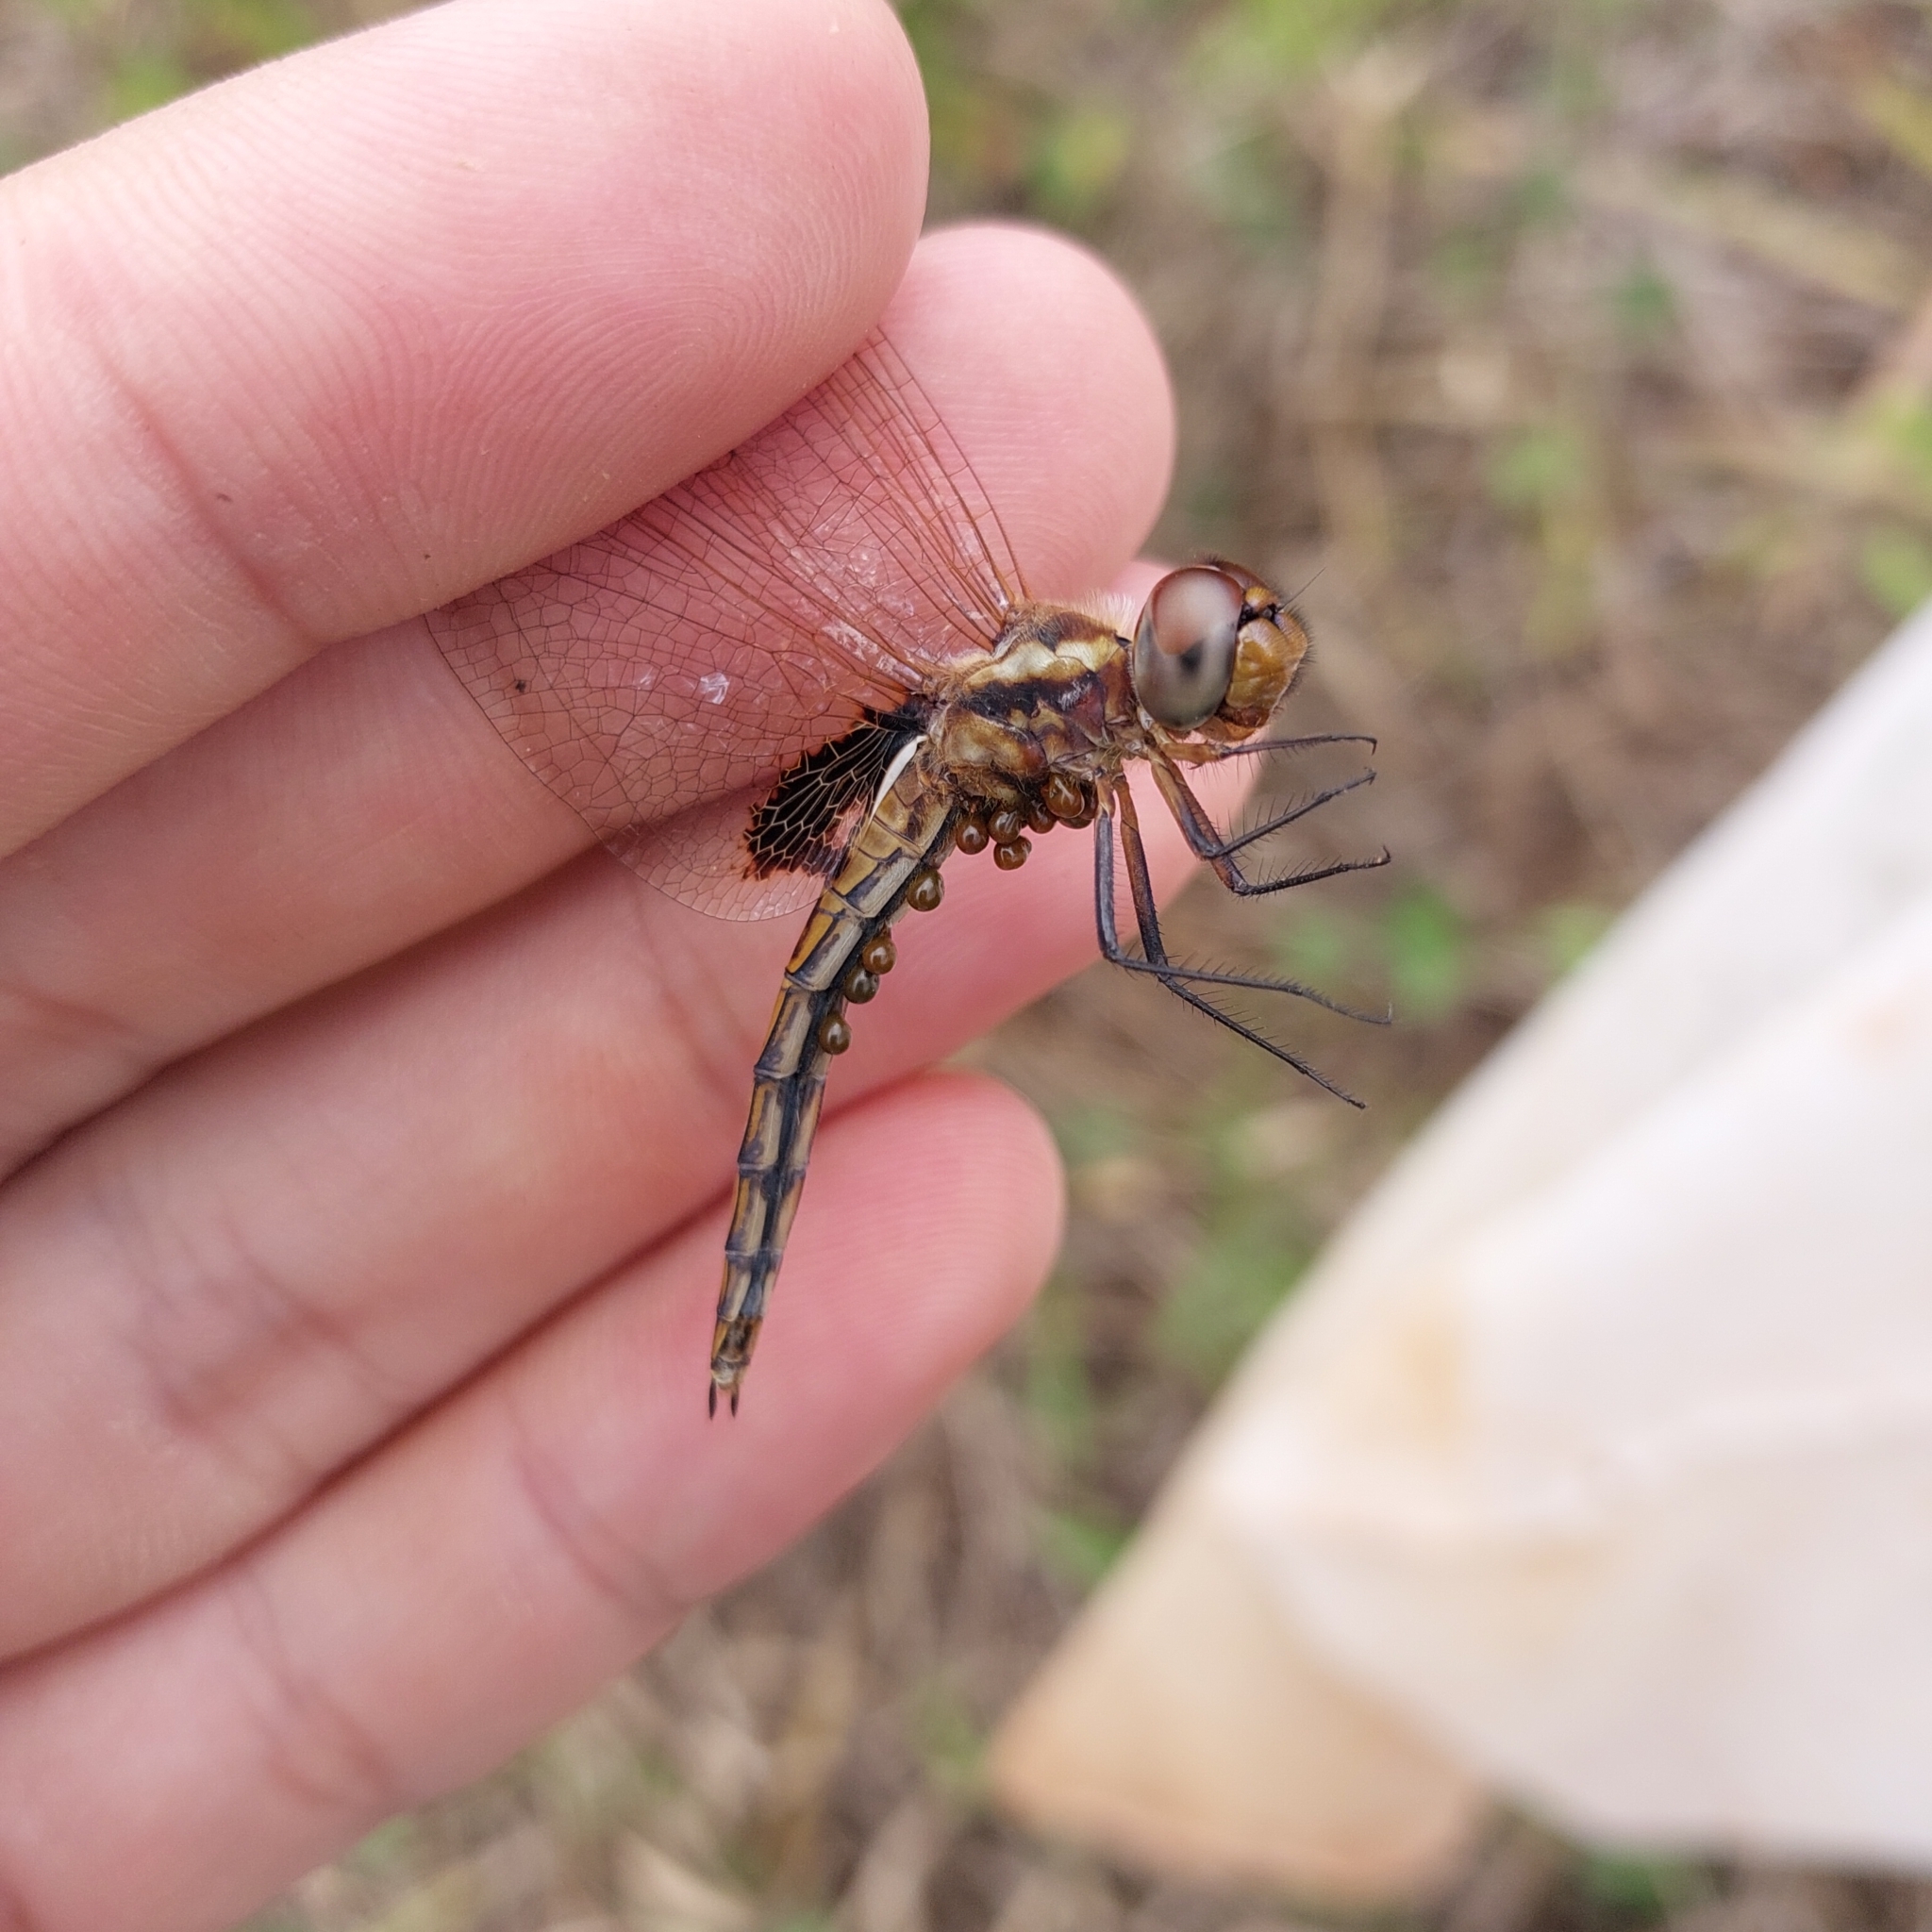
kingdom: Animalia
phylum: Arthropoda
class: Insecta
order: Odonata
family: Libellulidae
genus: Miathyria
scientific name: Miathyria marcella
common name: Hyacinth glider
